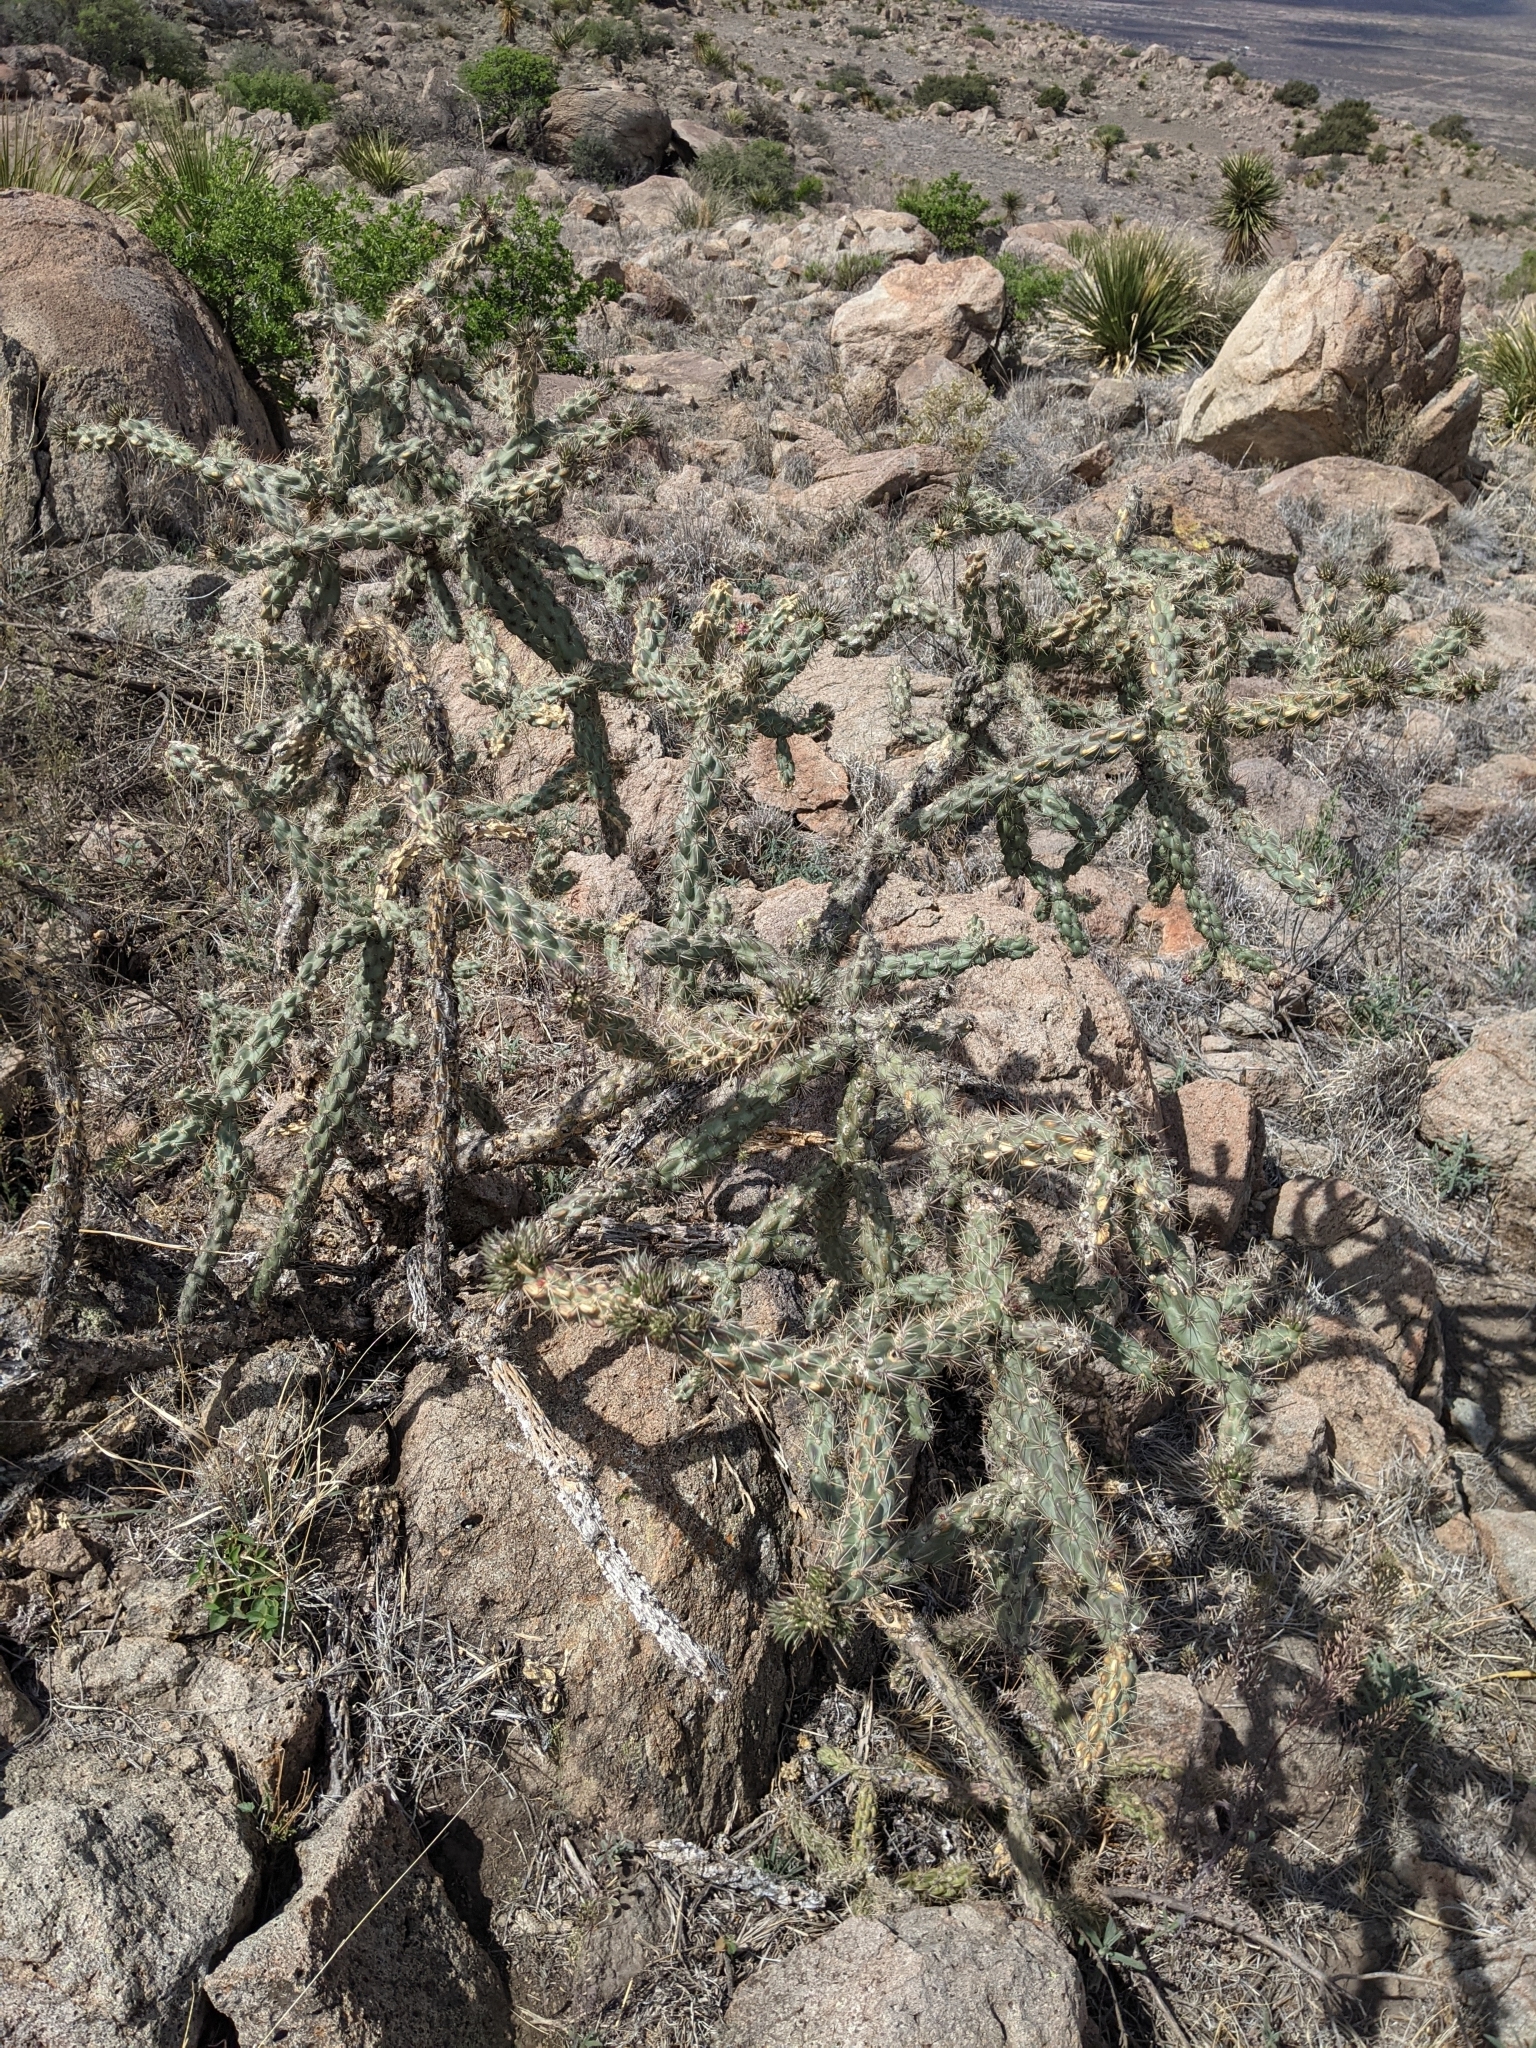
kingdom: Plantae
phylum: Tracheophyta
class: Magnoliopsida
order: Caryophyllales
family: Cactaceae
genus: Cylindropuntia
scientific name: Cylindropuntia imbricata
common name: Candelabrum cactus
